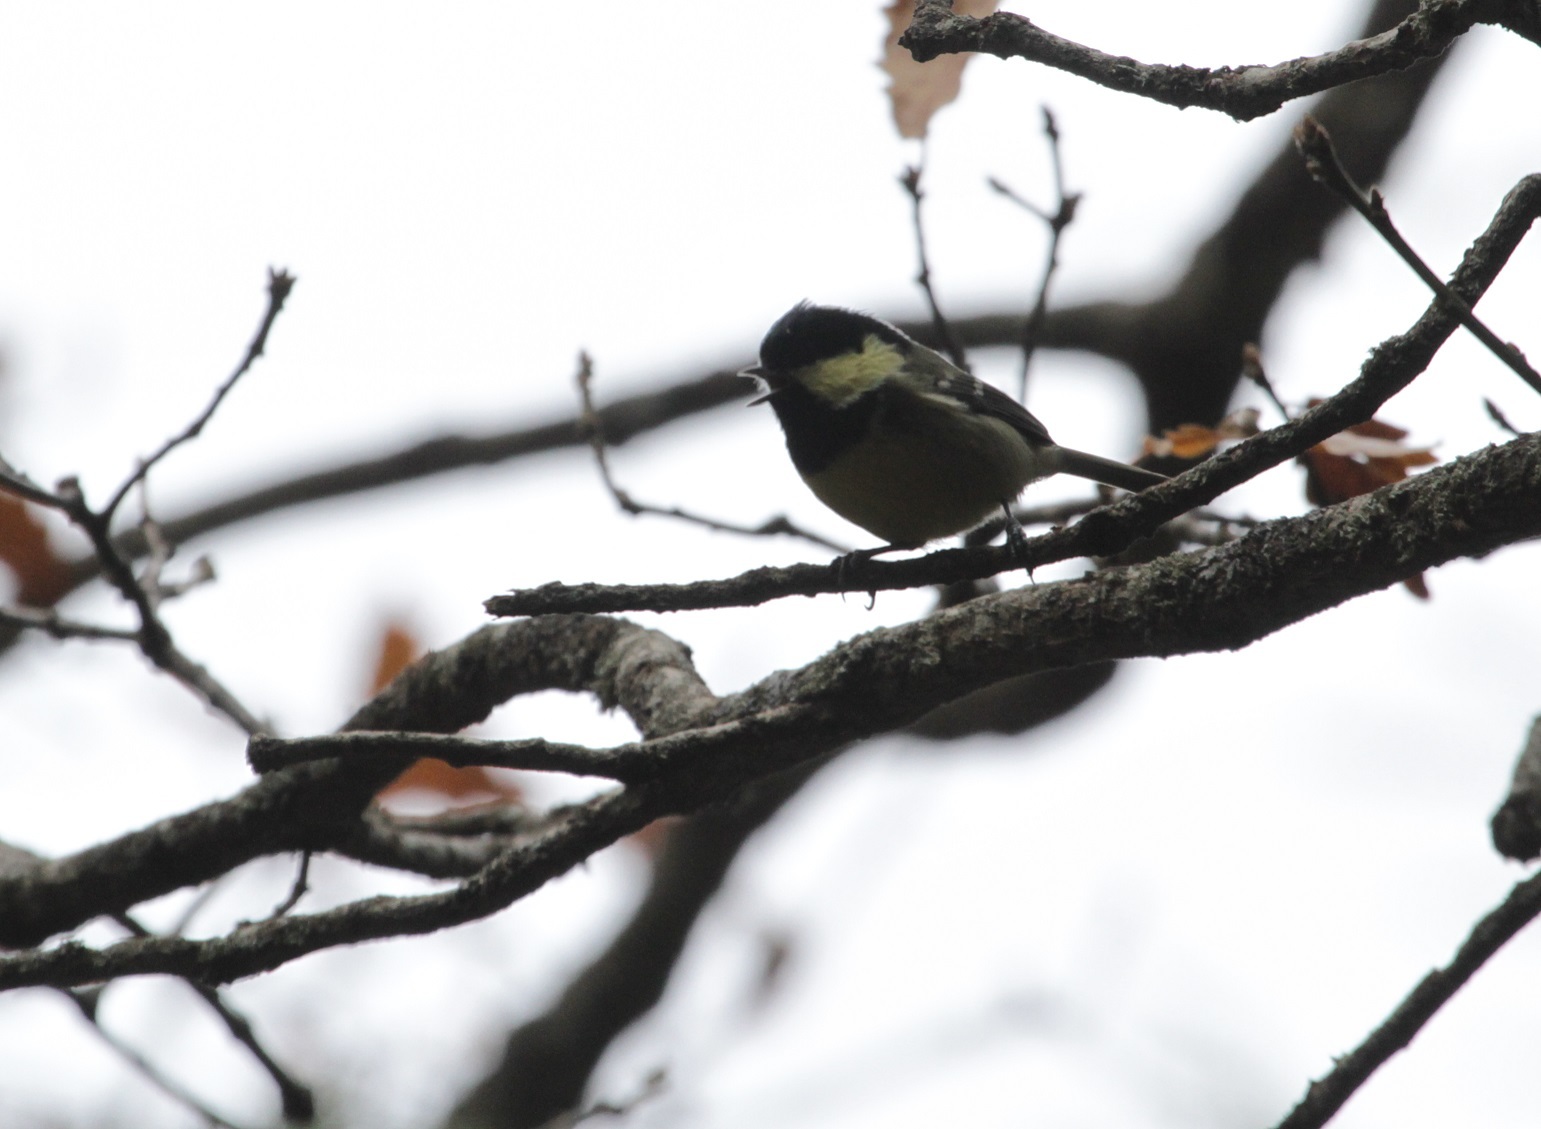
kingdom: Animalia
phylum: Chordata
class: Aves
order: Passeriformes
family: Paridae
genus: Periparus
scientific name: Periparus ater
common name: Coal tit
